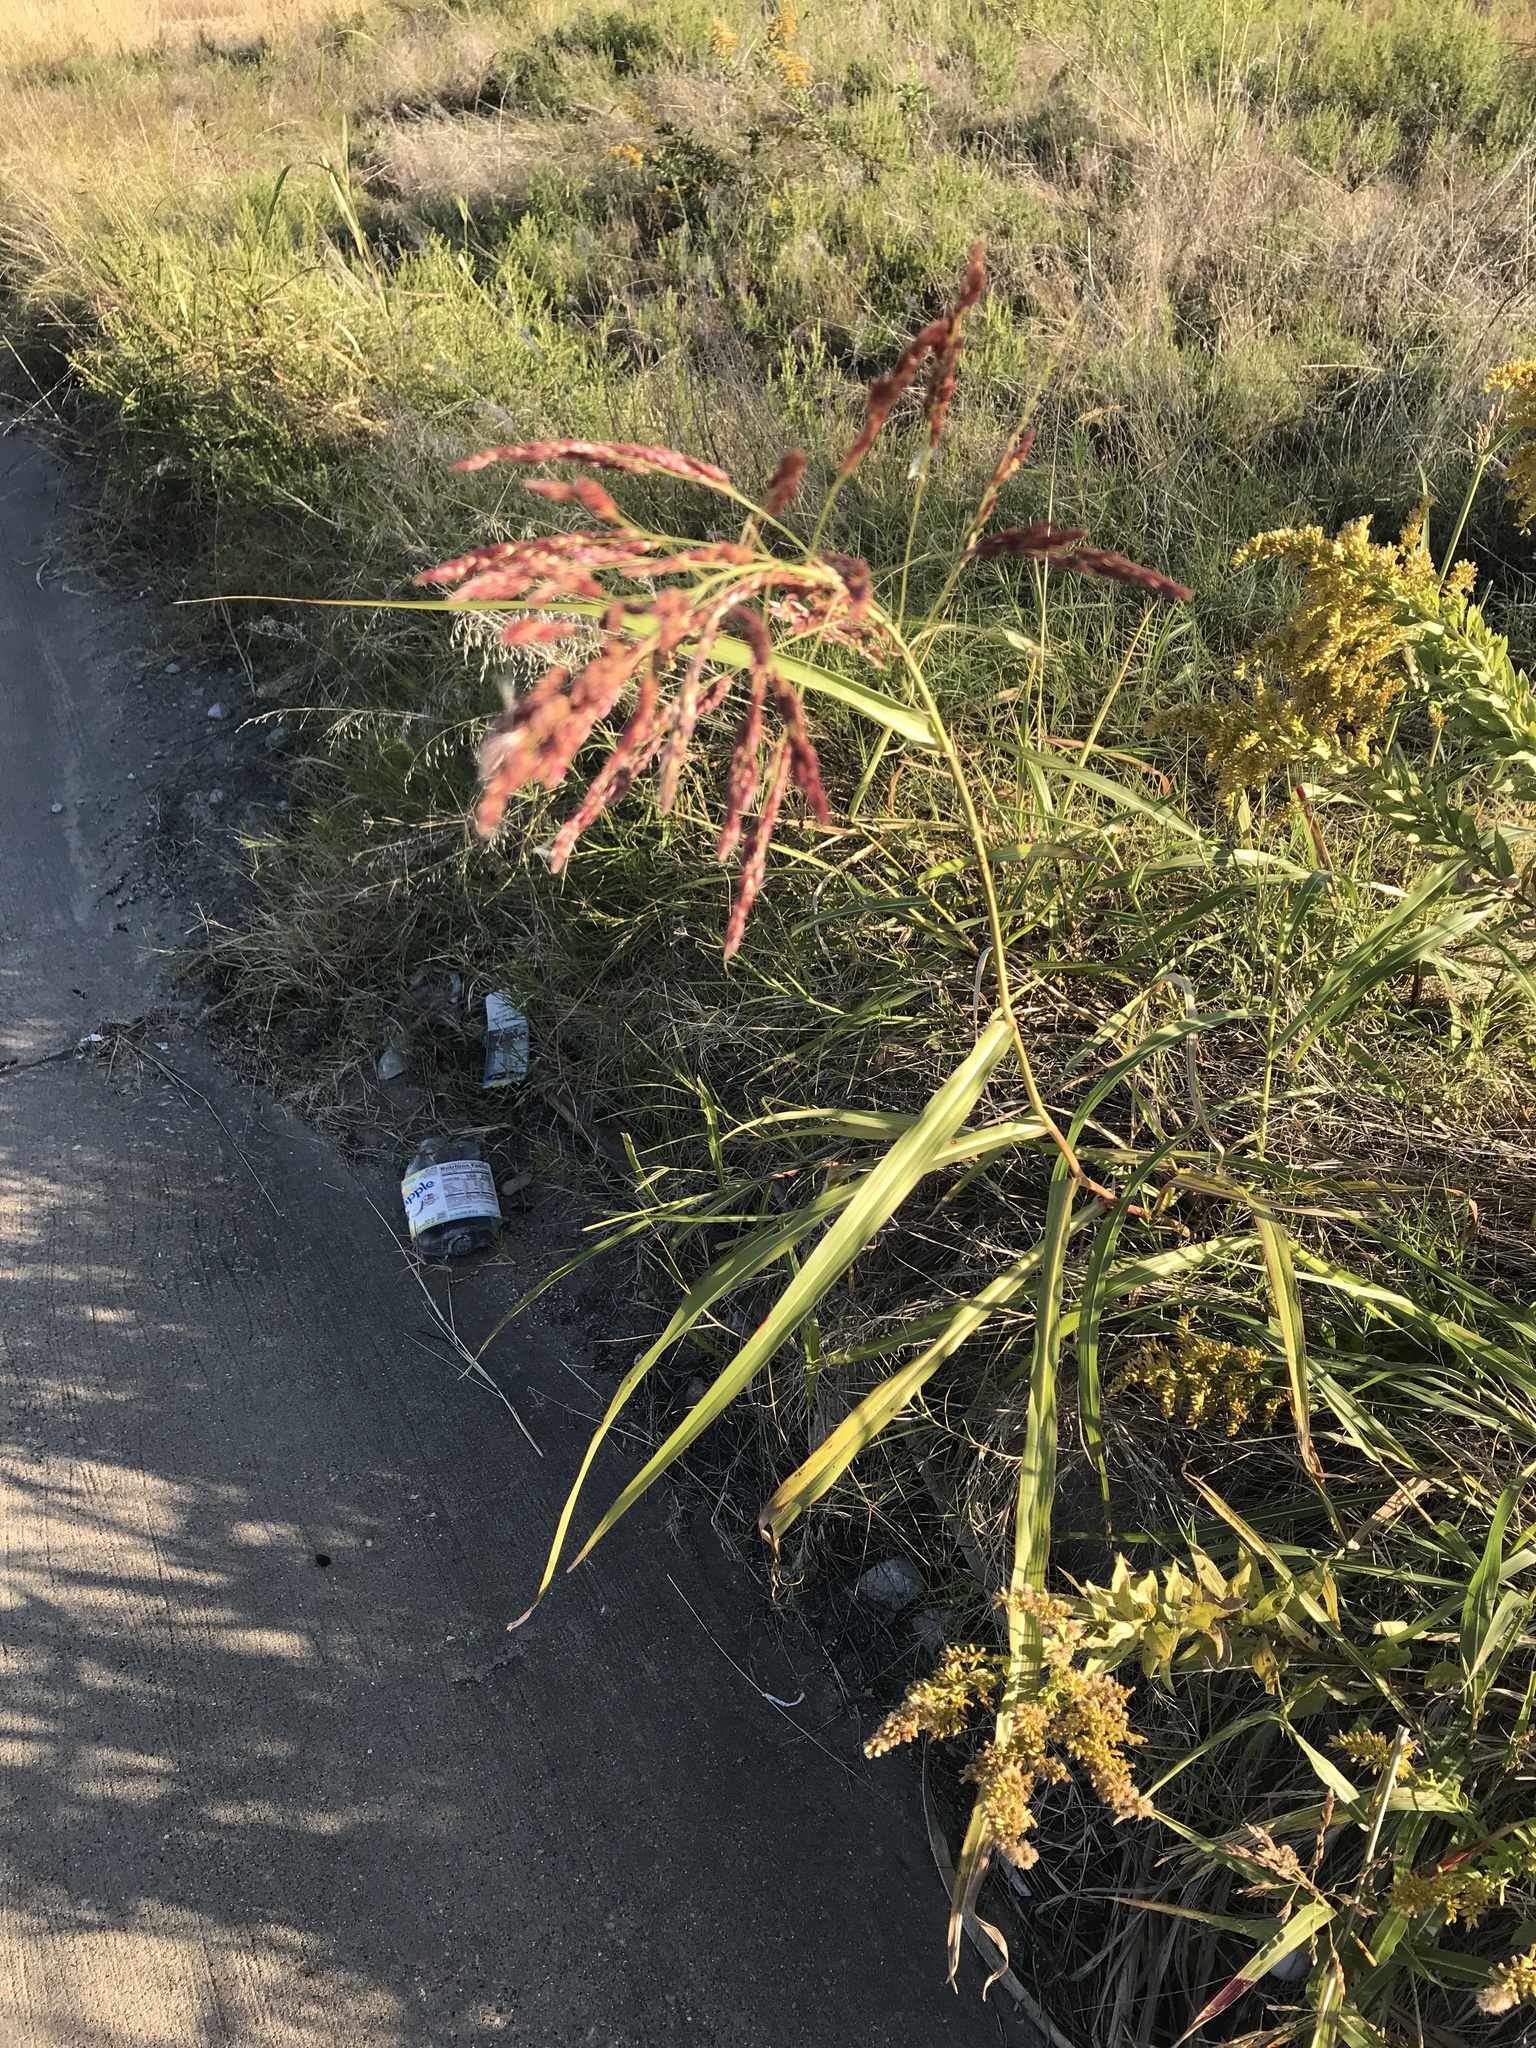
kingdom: Plantae
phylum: Tracheophyta
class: Liliopsida
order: Poales
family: Poaceae
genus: Sorghum
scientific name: Sorghum halepense
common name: Johnson-grass
